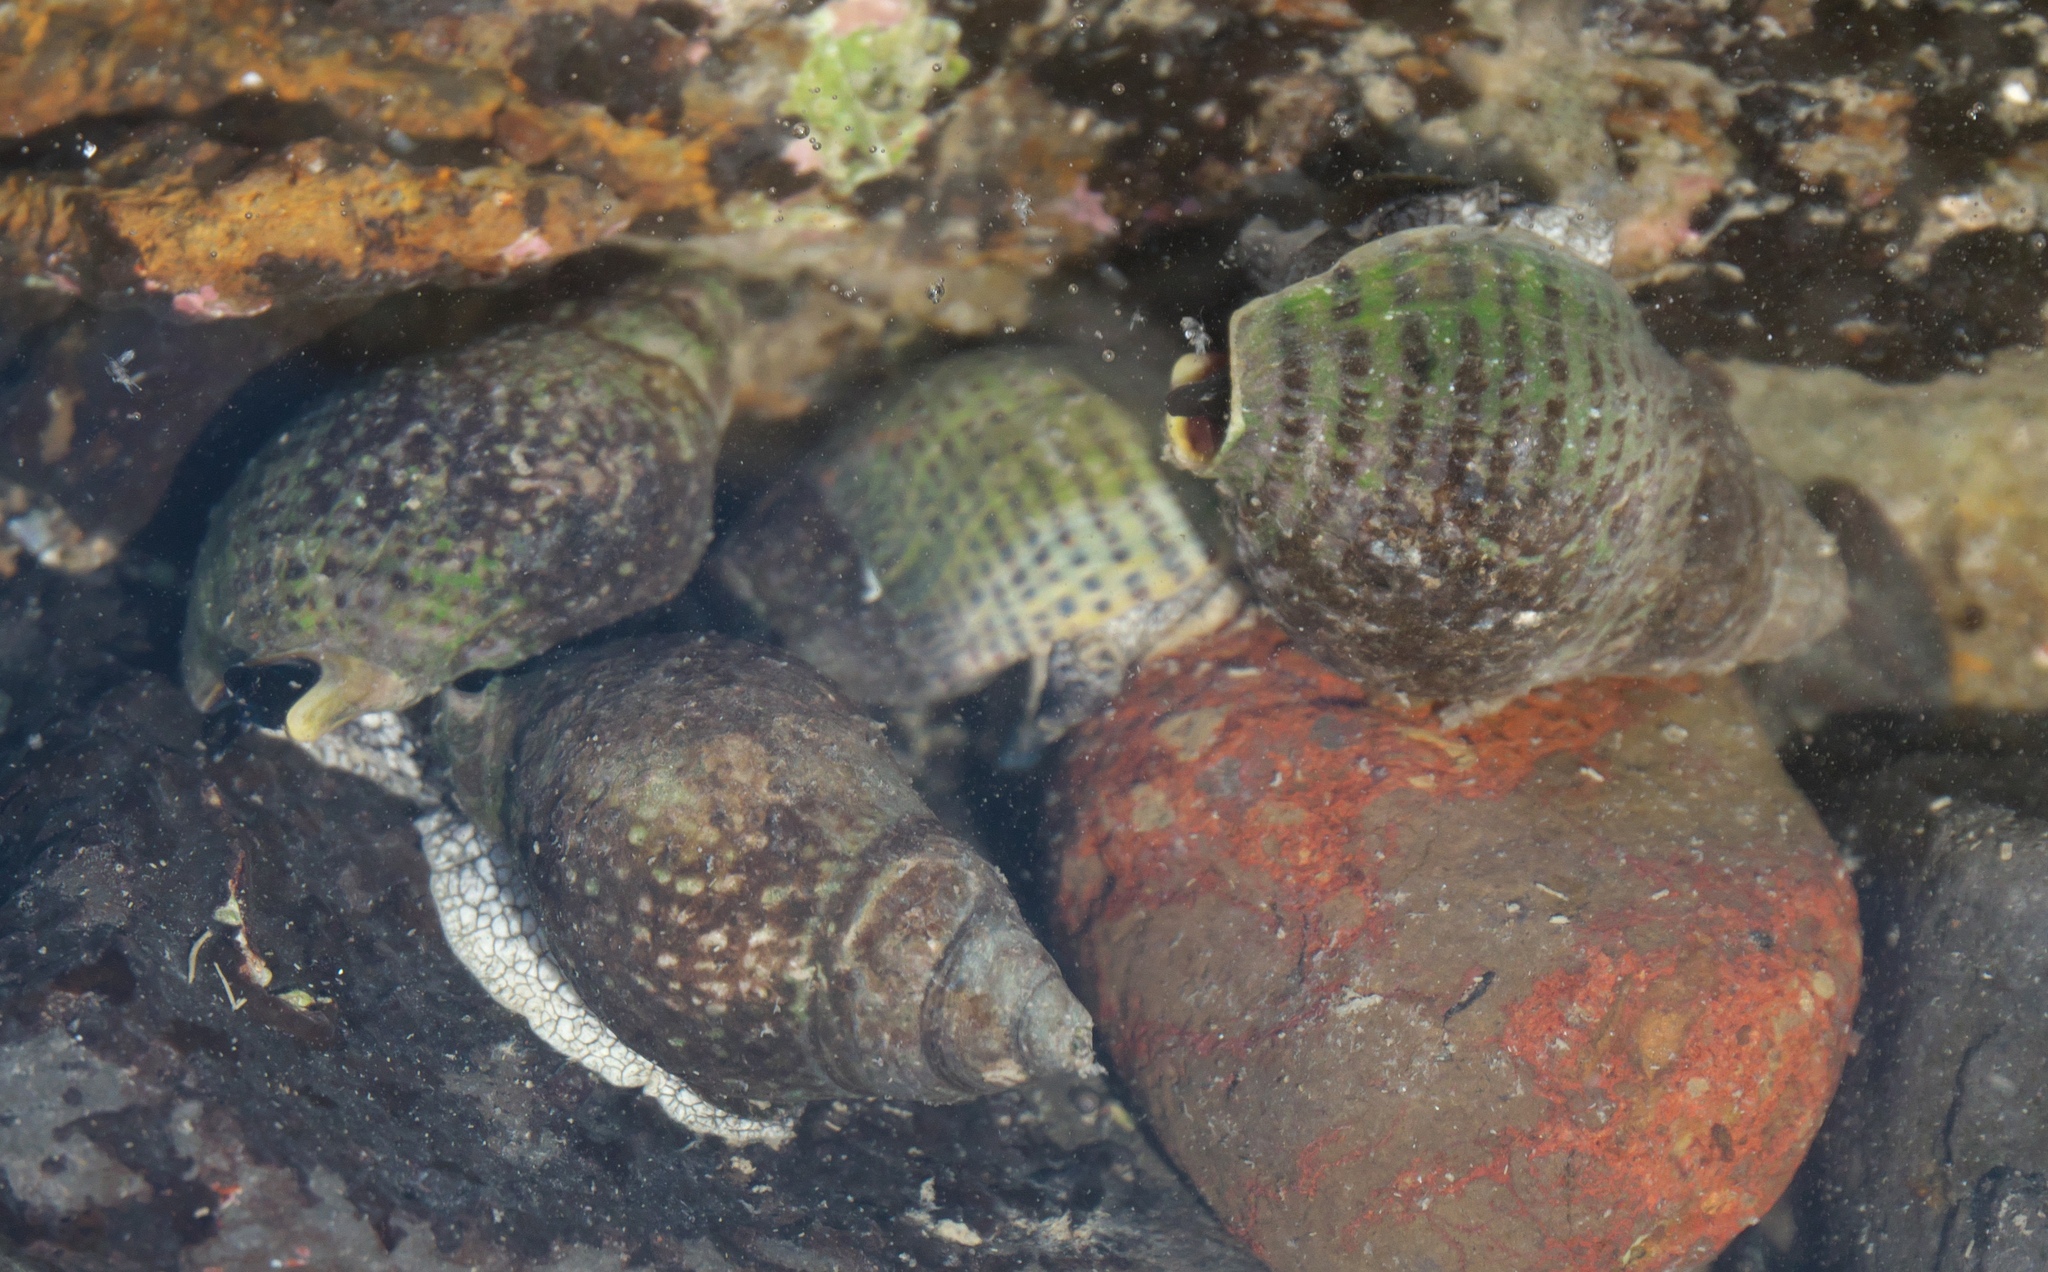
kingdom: Animalia
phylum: Mollusca
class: Gastropoda
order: Neogastropoda
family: Cominellidae
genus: Cominella
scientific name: Cominella maculosa
